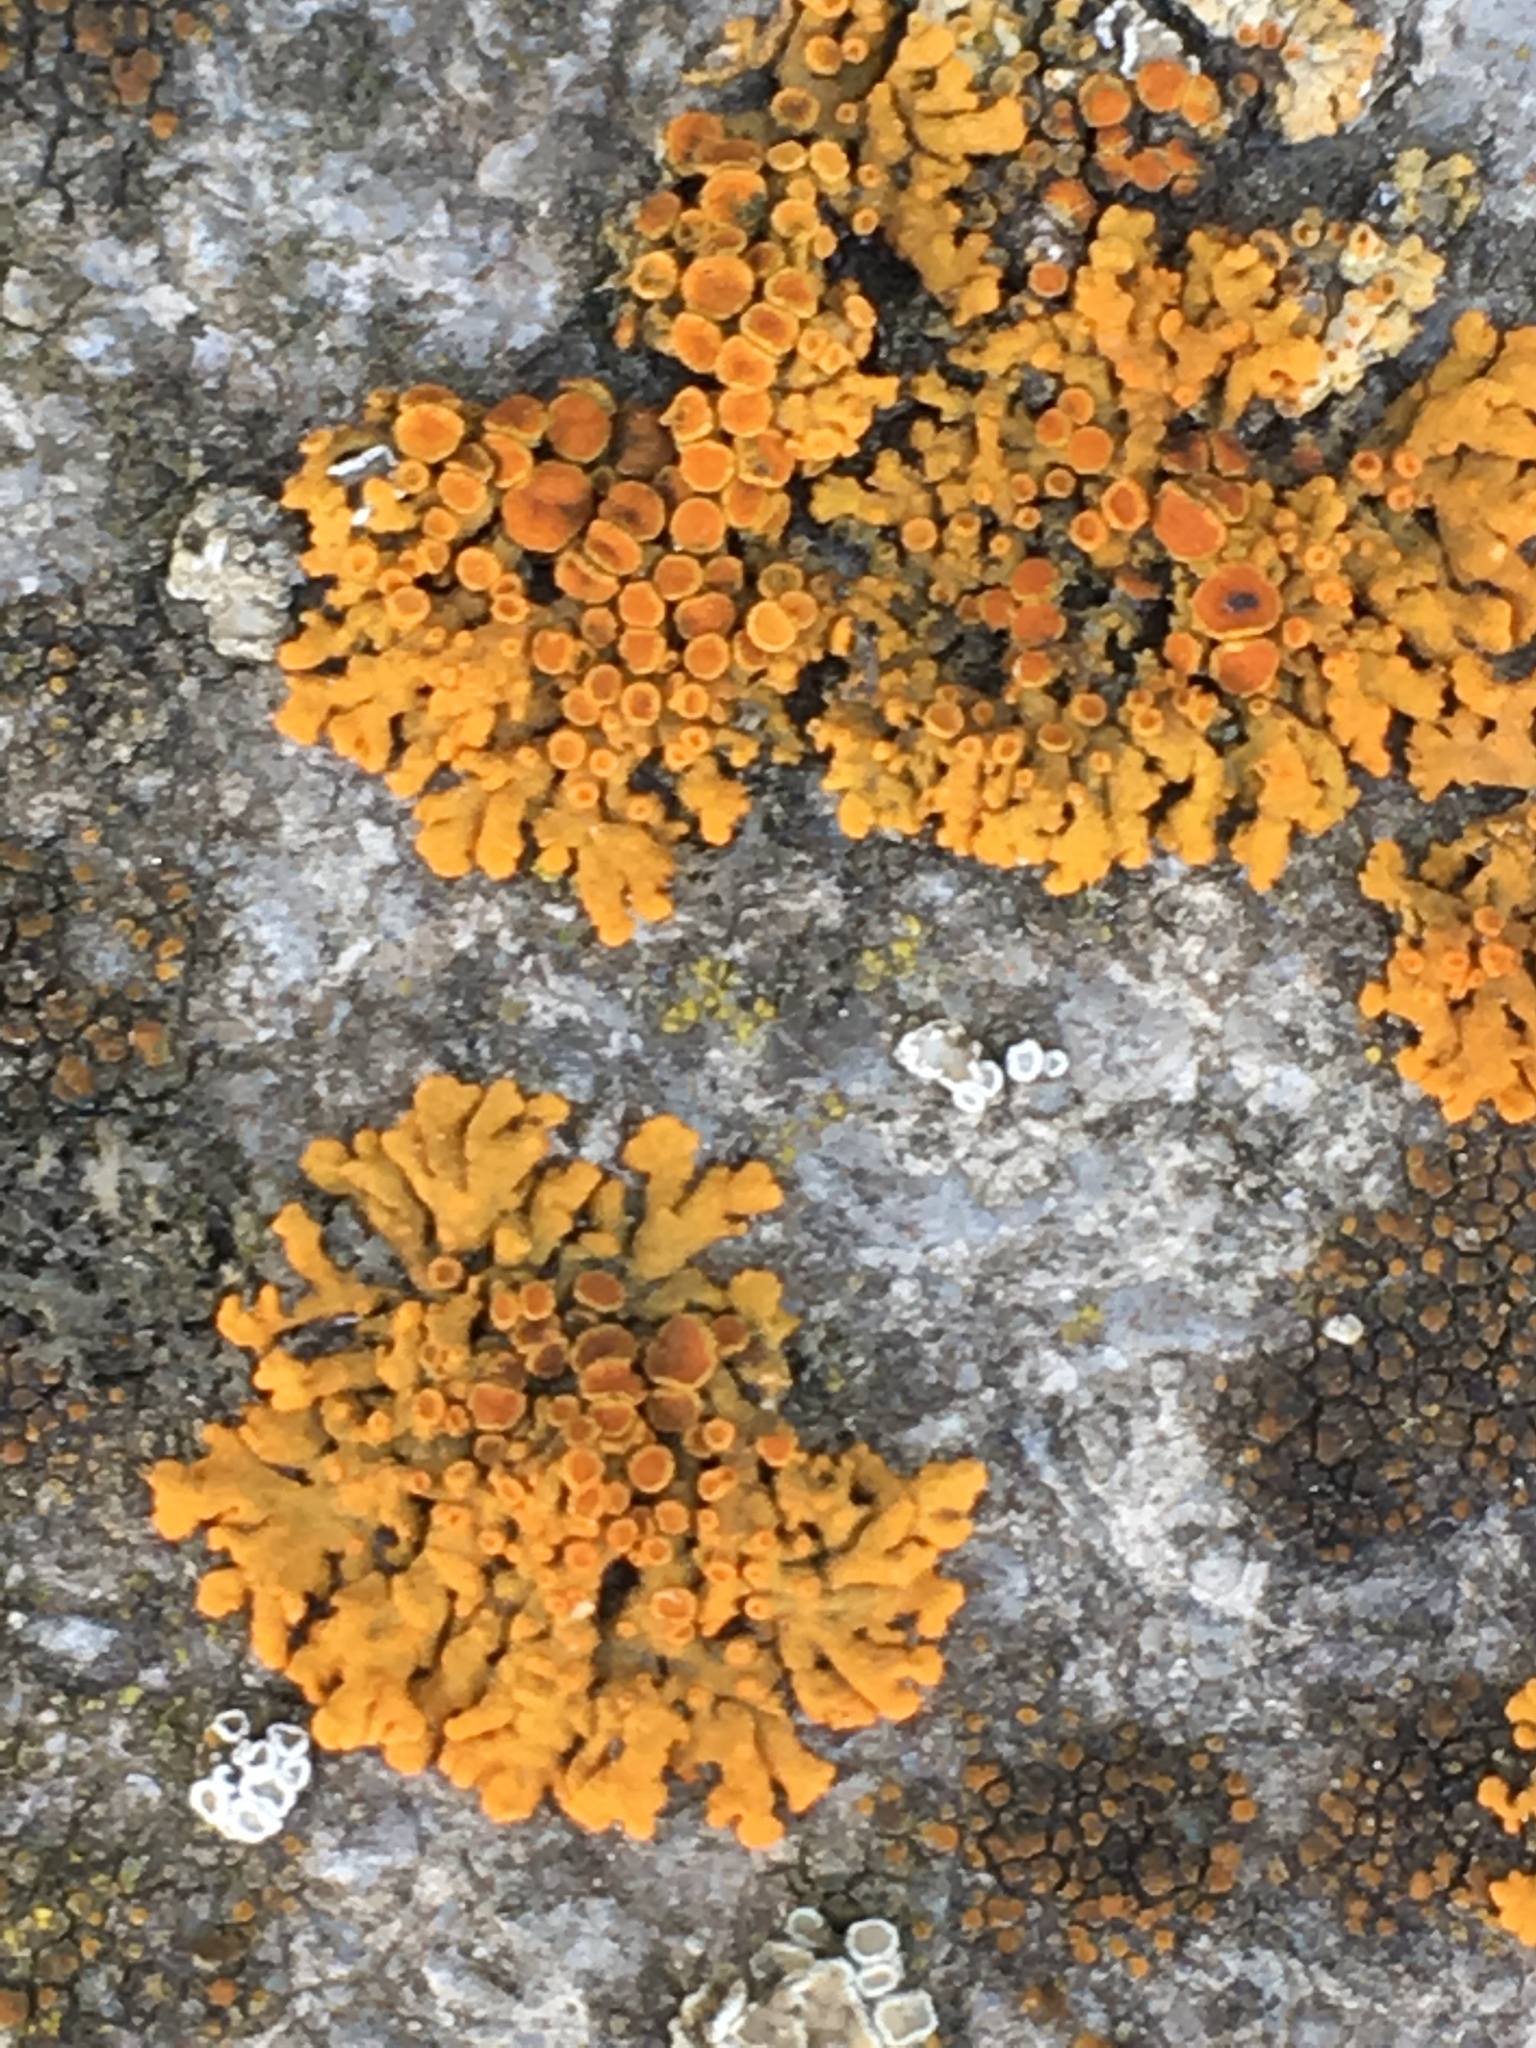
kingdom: Fungi
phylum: Ascomycota
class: Lecanoromycetes
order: Teloschistales
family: Teloschistaceae
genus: Xanthoria
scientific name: Xanthoria elegans
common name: Elegant sunburst lichen
